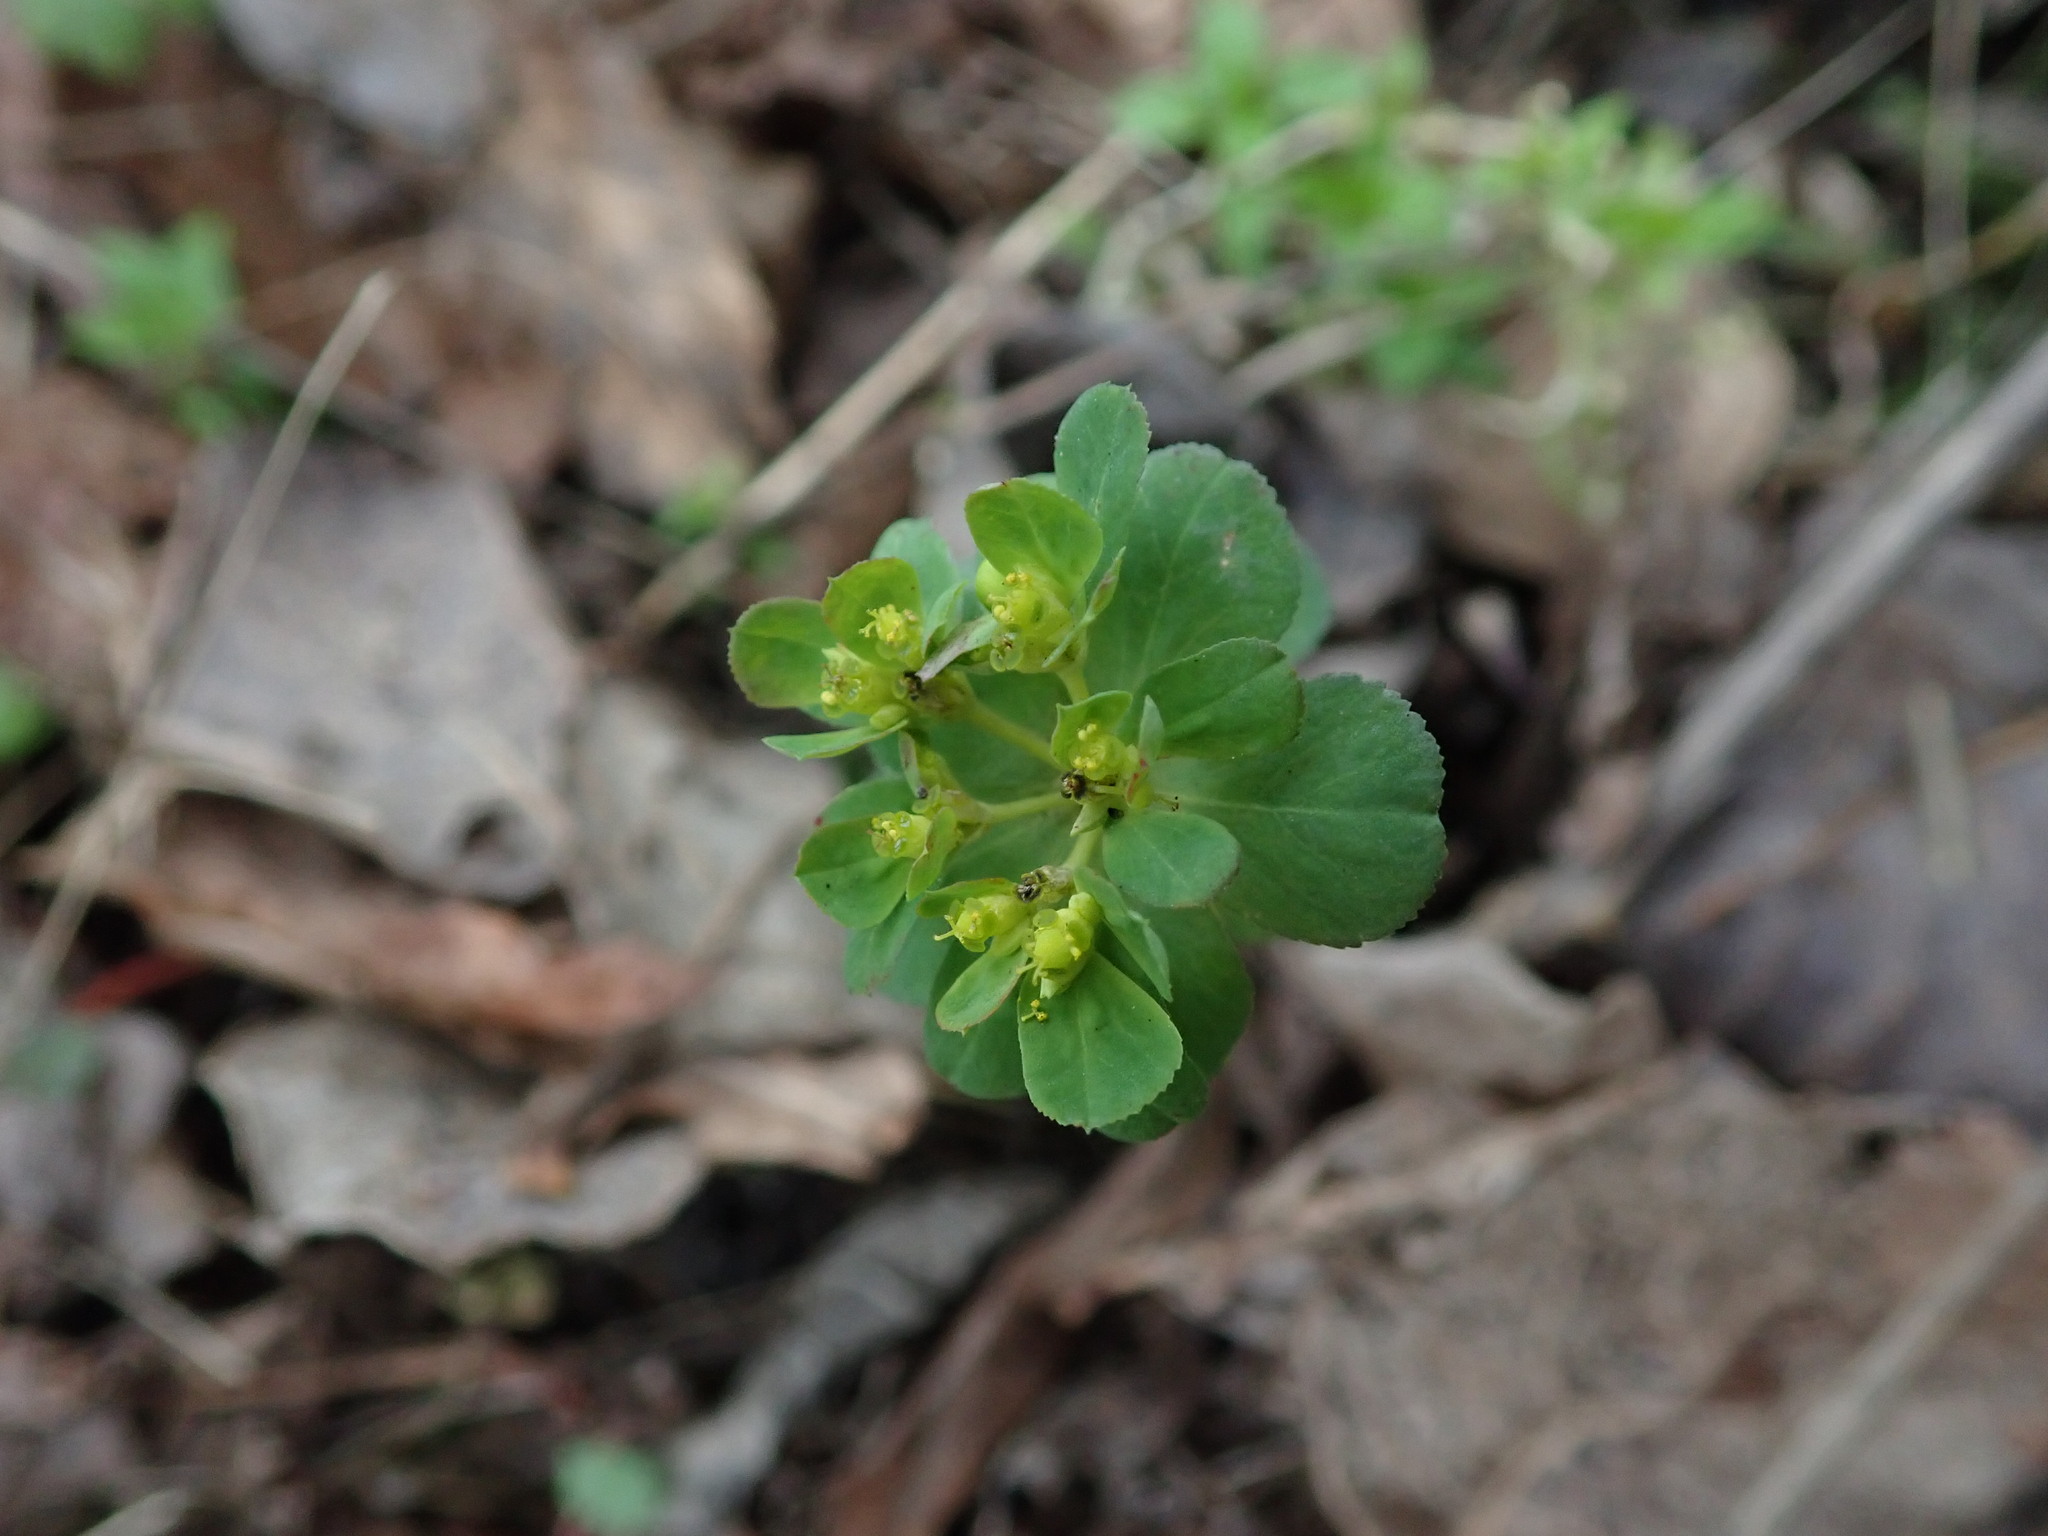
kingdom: Plantae
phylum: Tracheophyta
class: Magnoliopsida
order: Malpighiales
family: Euphorbiaceae
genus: Euphorbia
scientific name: Euphorbia helioscopia
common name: Sun spurge
